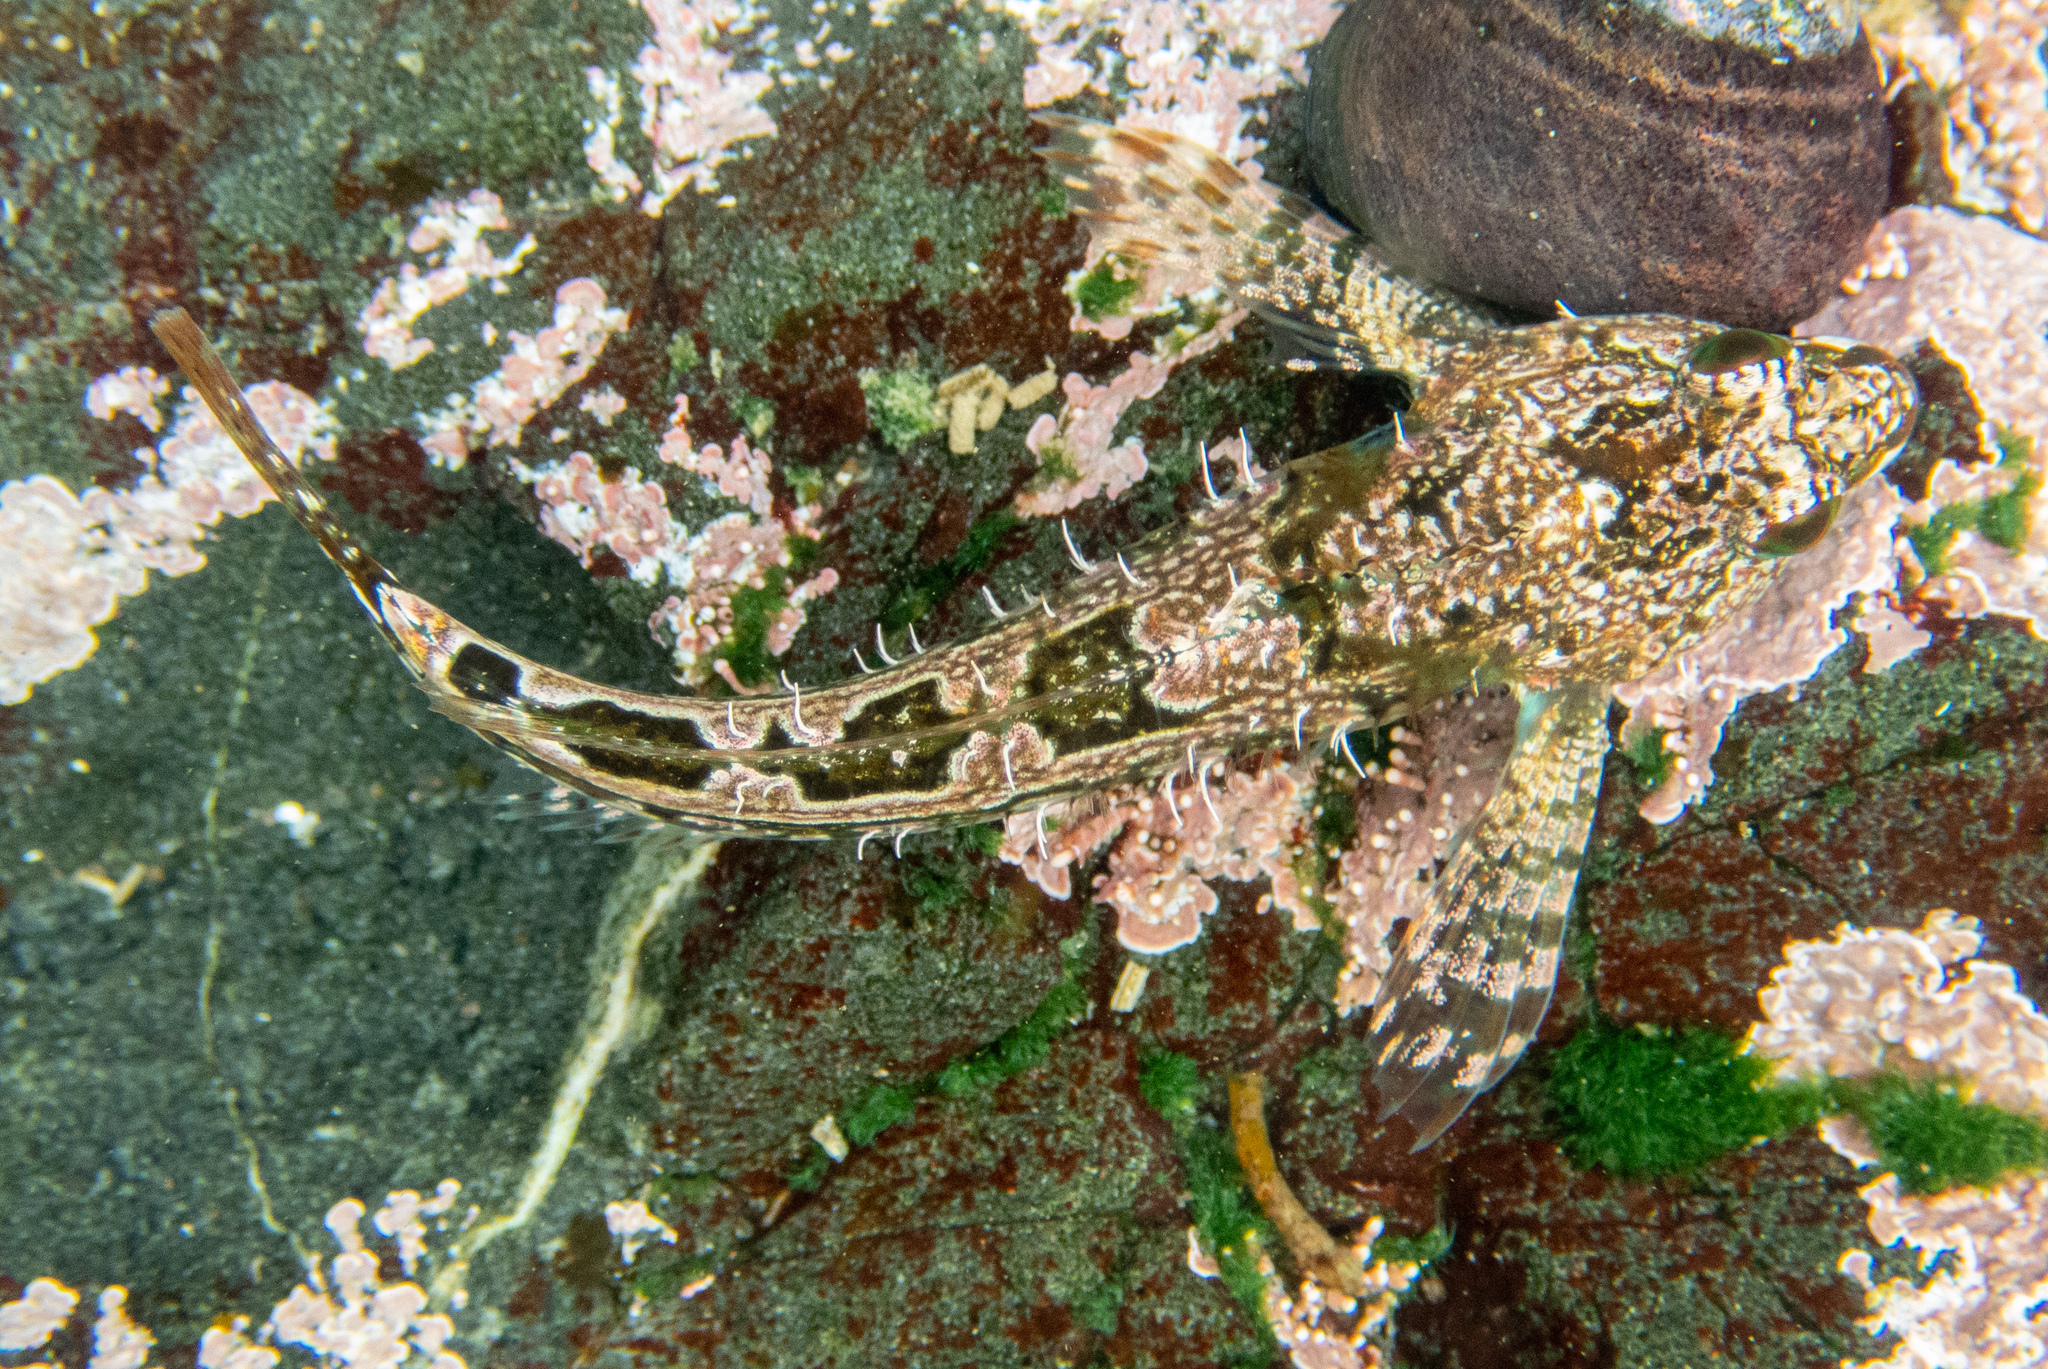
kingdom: Animalia
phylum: Chordata
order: Scorpaeniformes
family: Cottidae
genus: Oligocottus
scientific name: Oligocottus snyderi
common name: Fluffy sculpin
